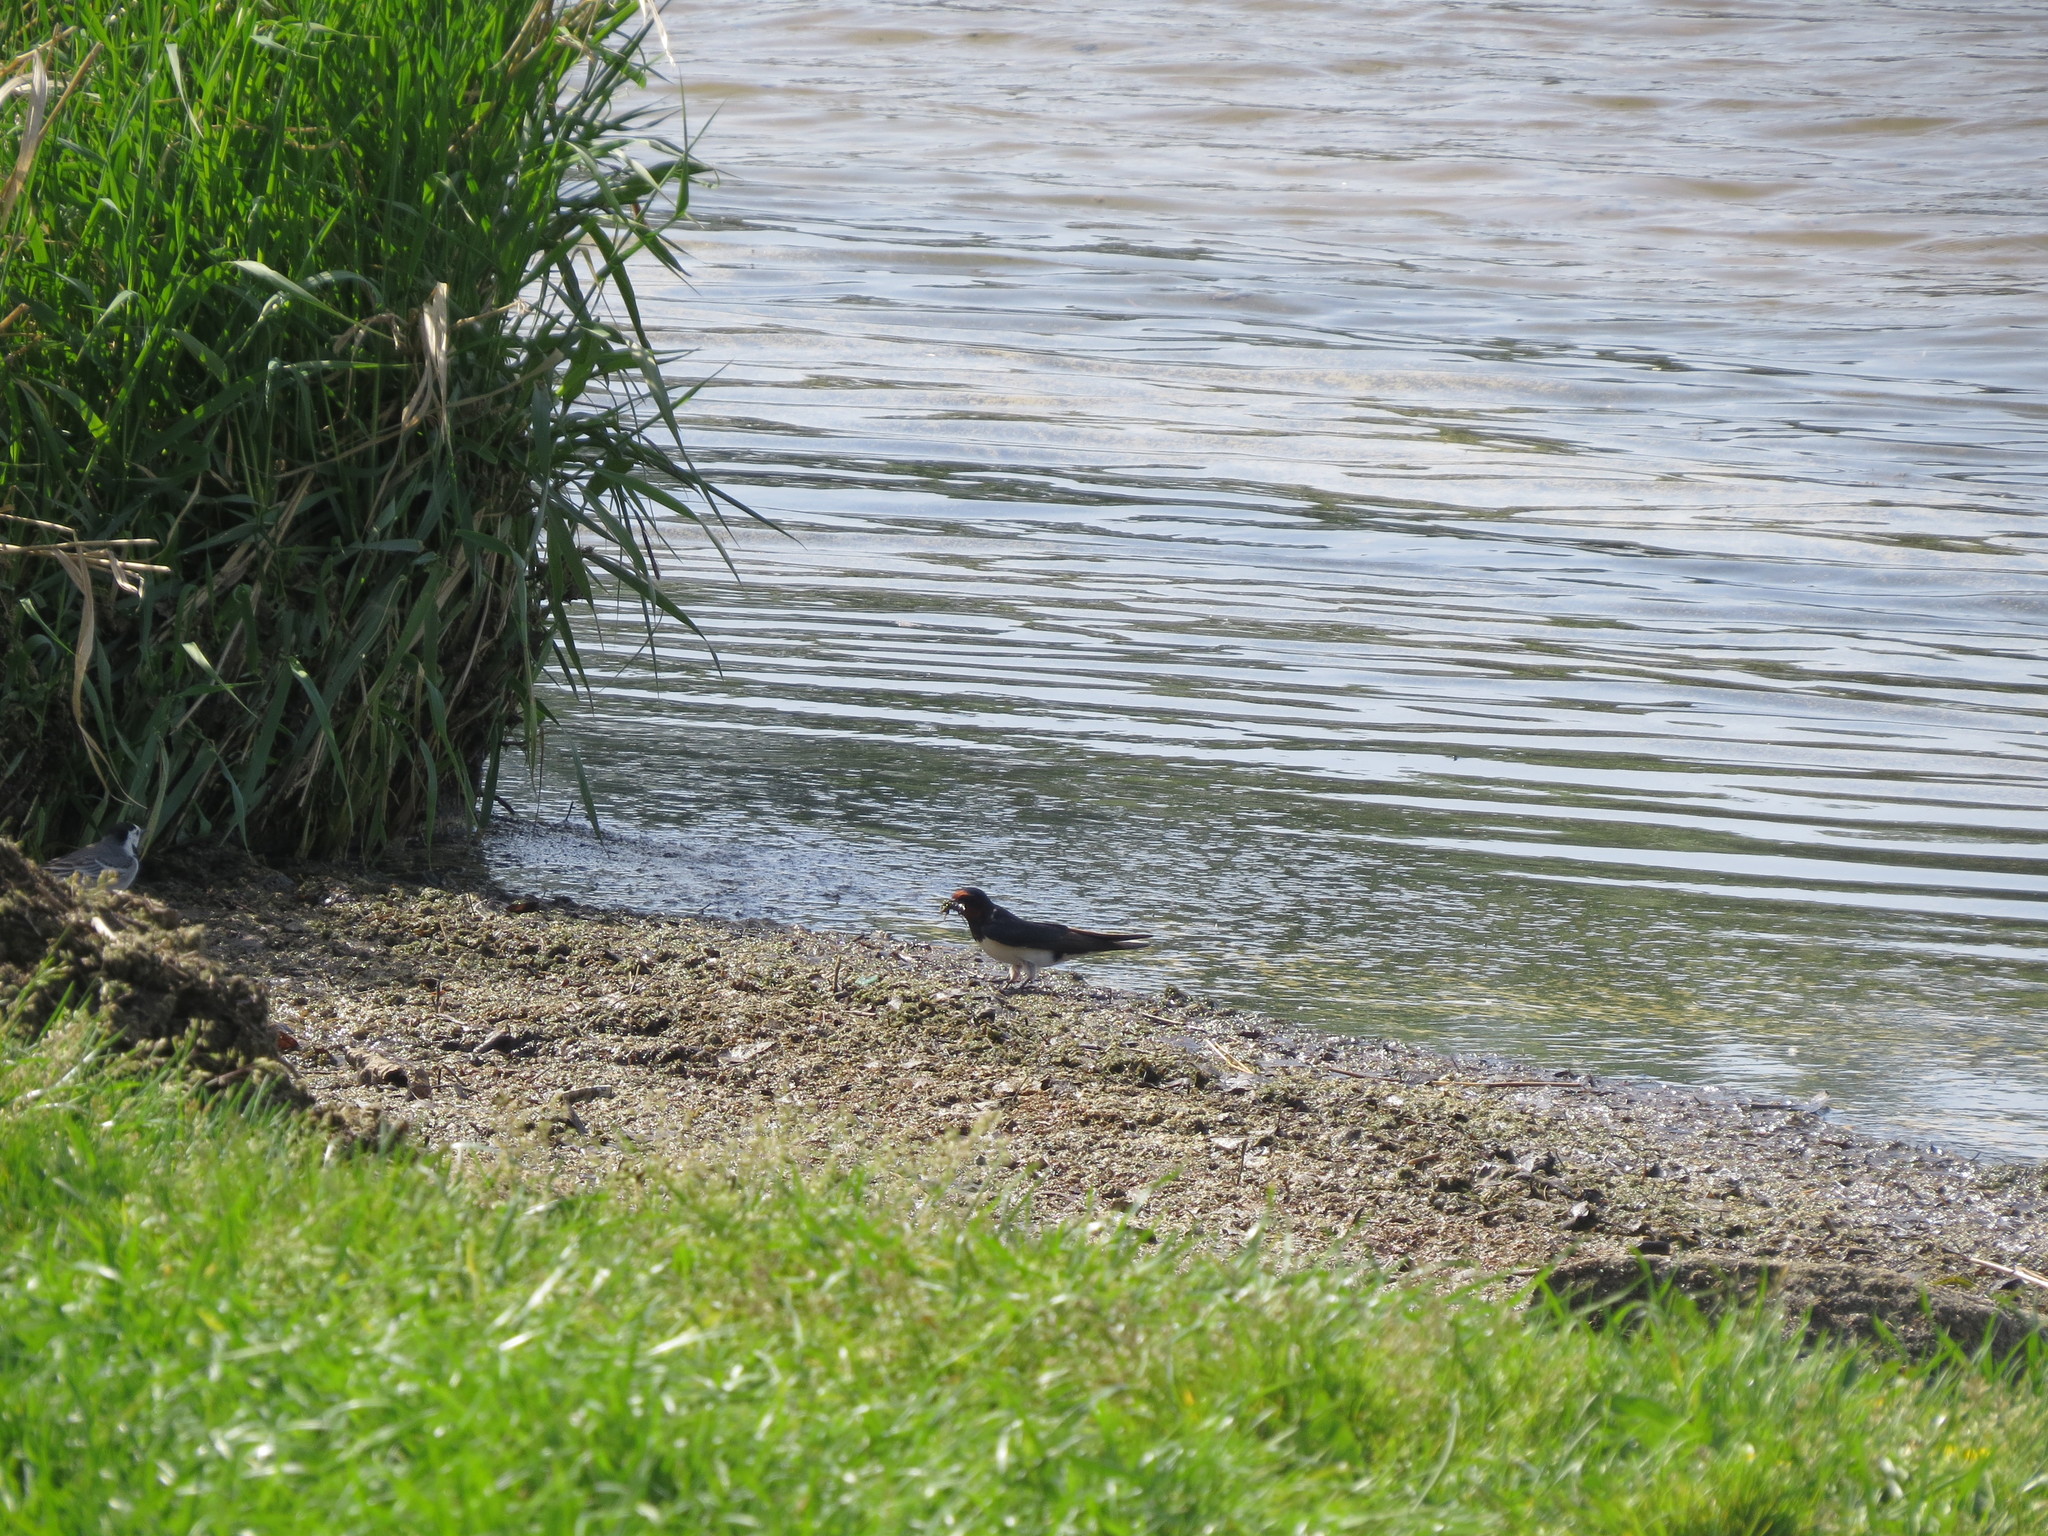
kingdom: Animalia
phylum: Chordata
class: Aves
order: Passeriformes
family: Hirundinidae
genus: Hirundo
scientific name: Hirundo rustica
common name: Barn swallow
